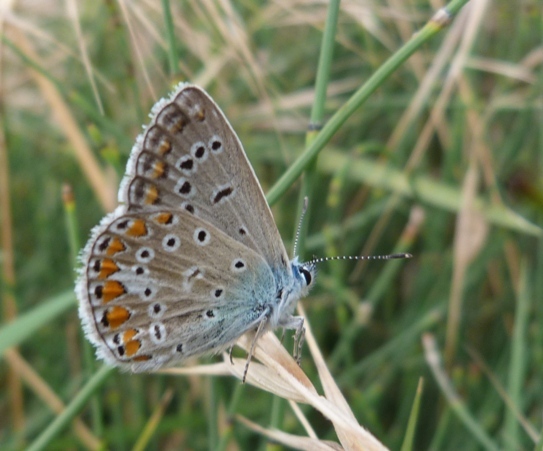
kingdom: Animalia
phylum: Arthropoda
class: Insecta
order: Lepidoptera
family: Lycaenidae
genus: Polyommatus
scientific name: Polyommatus icarus
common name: Common blue
